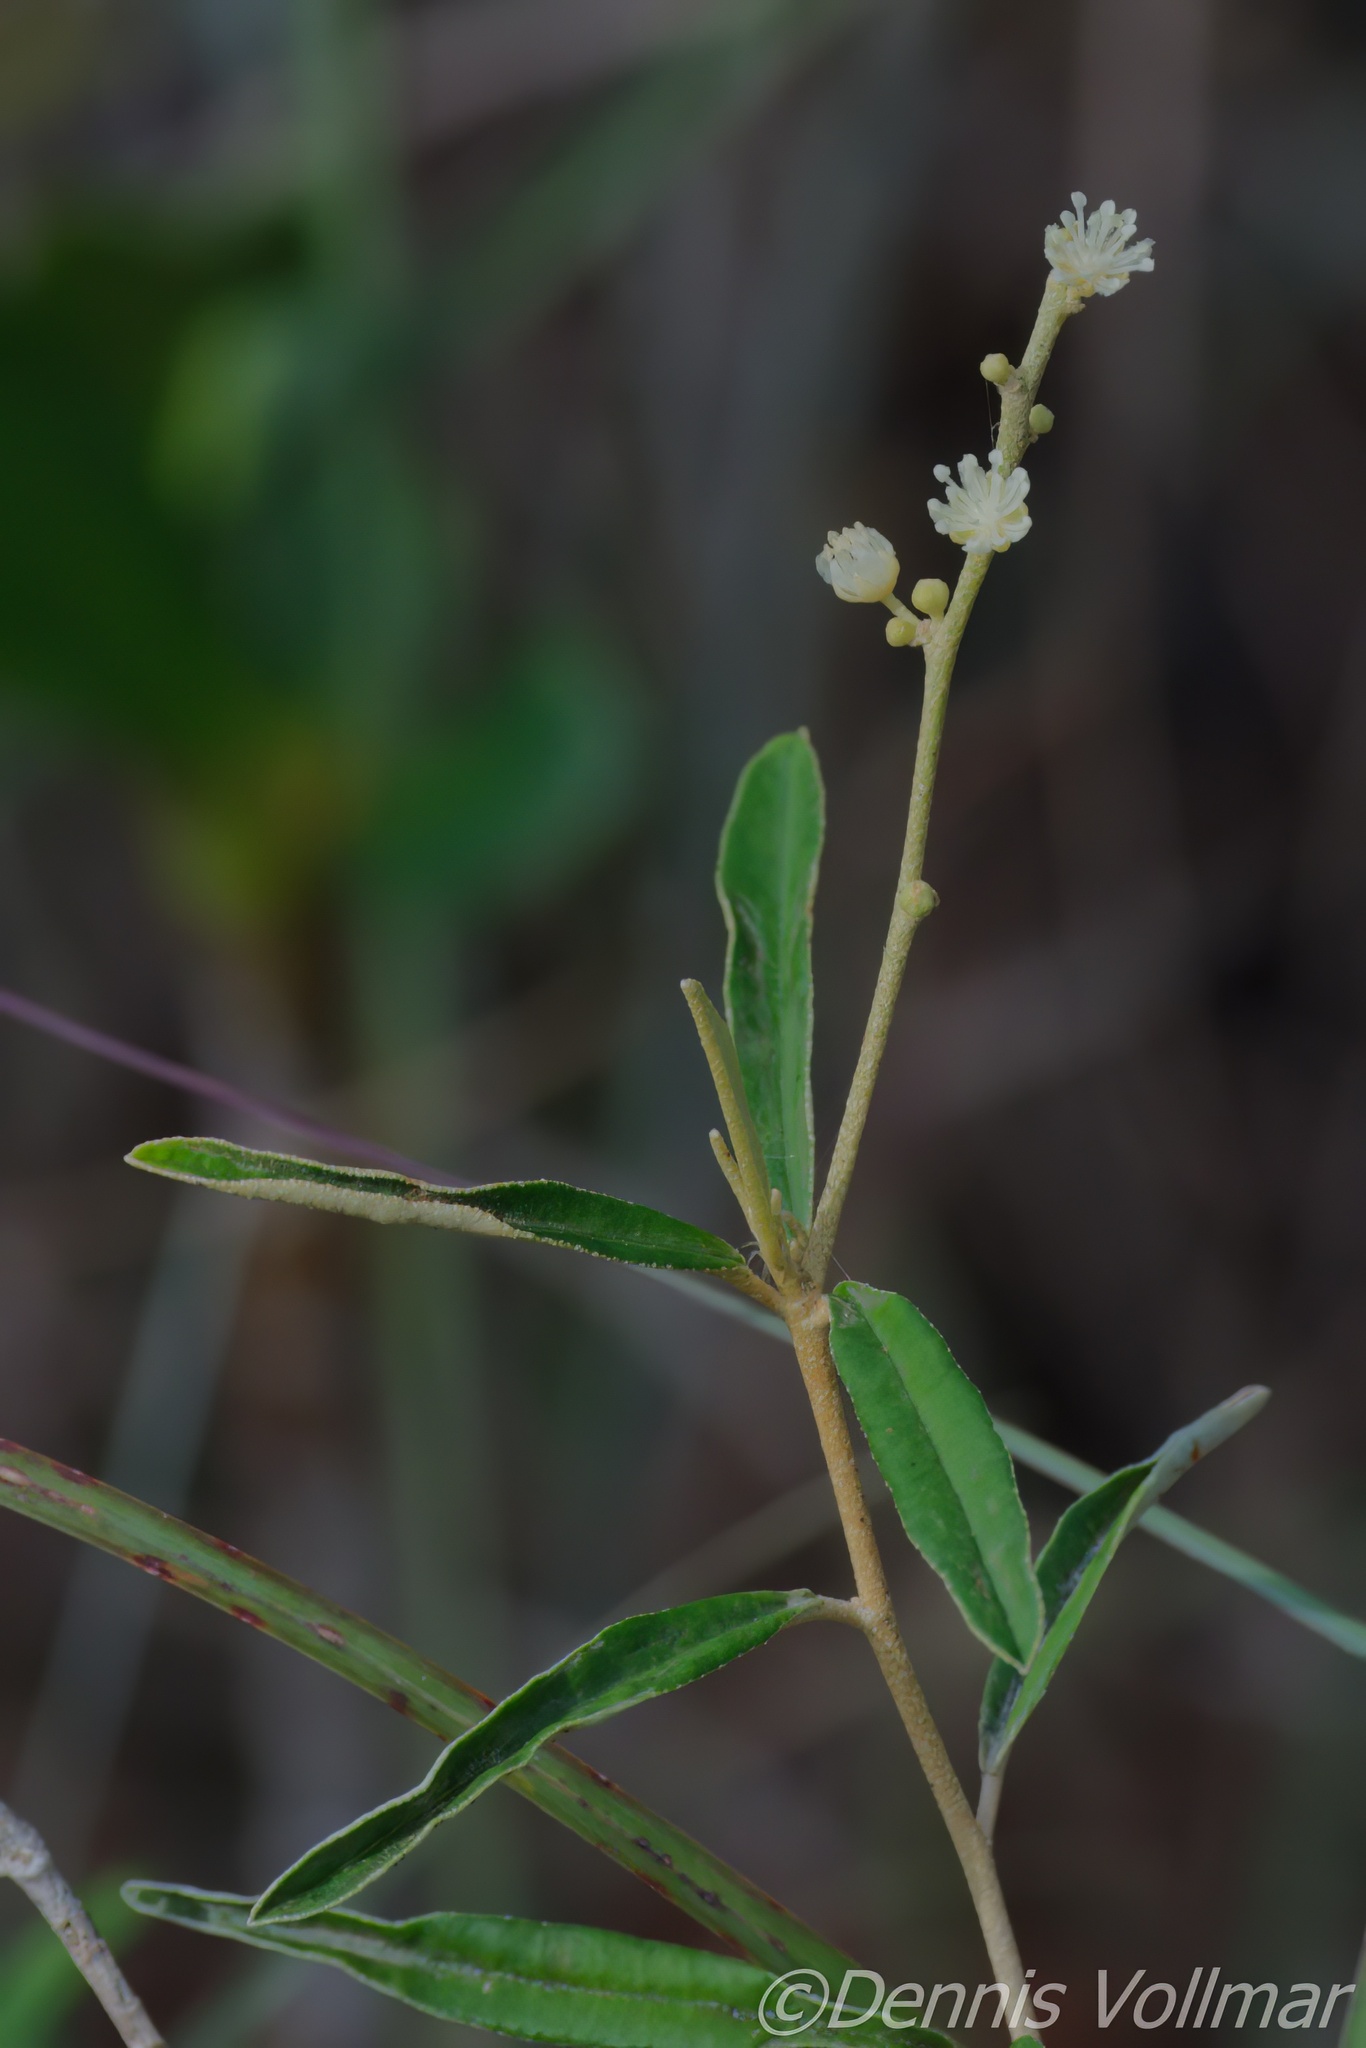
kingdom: Plantae
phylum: Tracheophyta
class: Magnoliopsida
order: Malpighiales
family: Euphorbiaceae
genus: Croton
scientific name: Croton linearis
